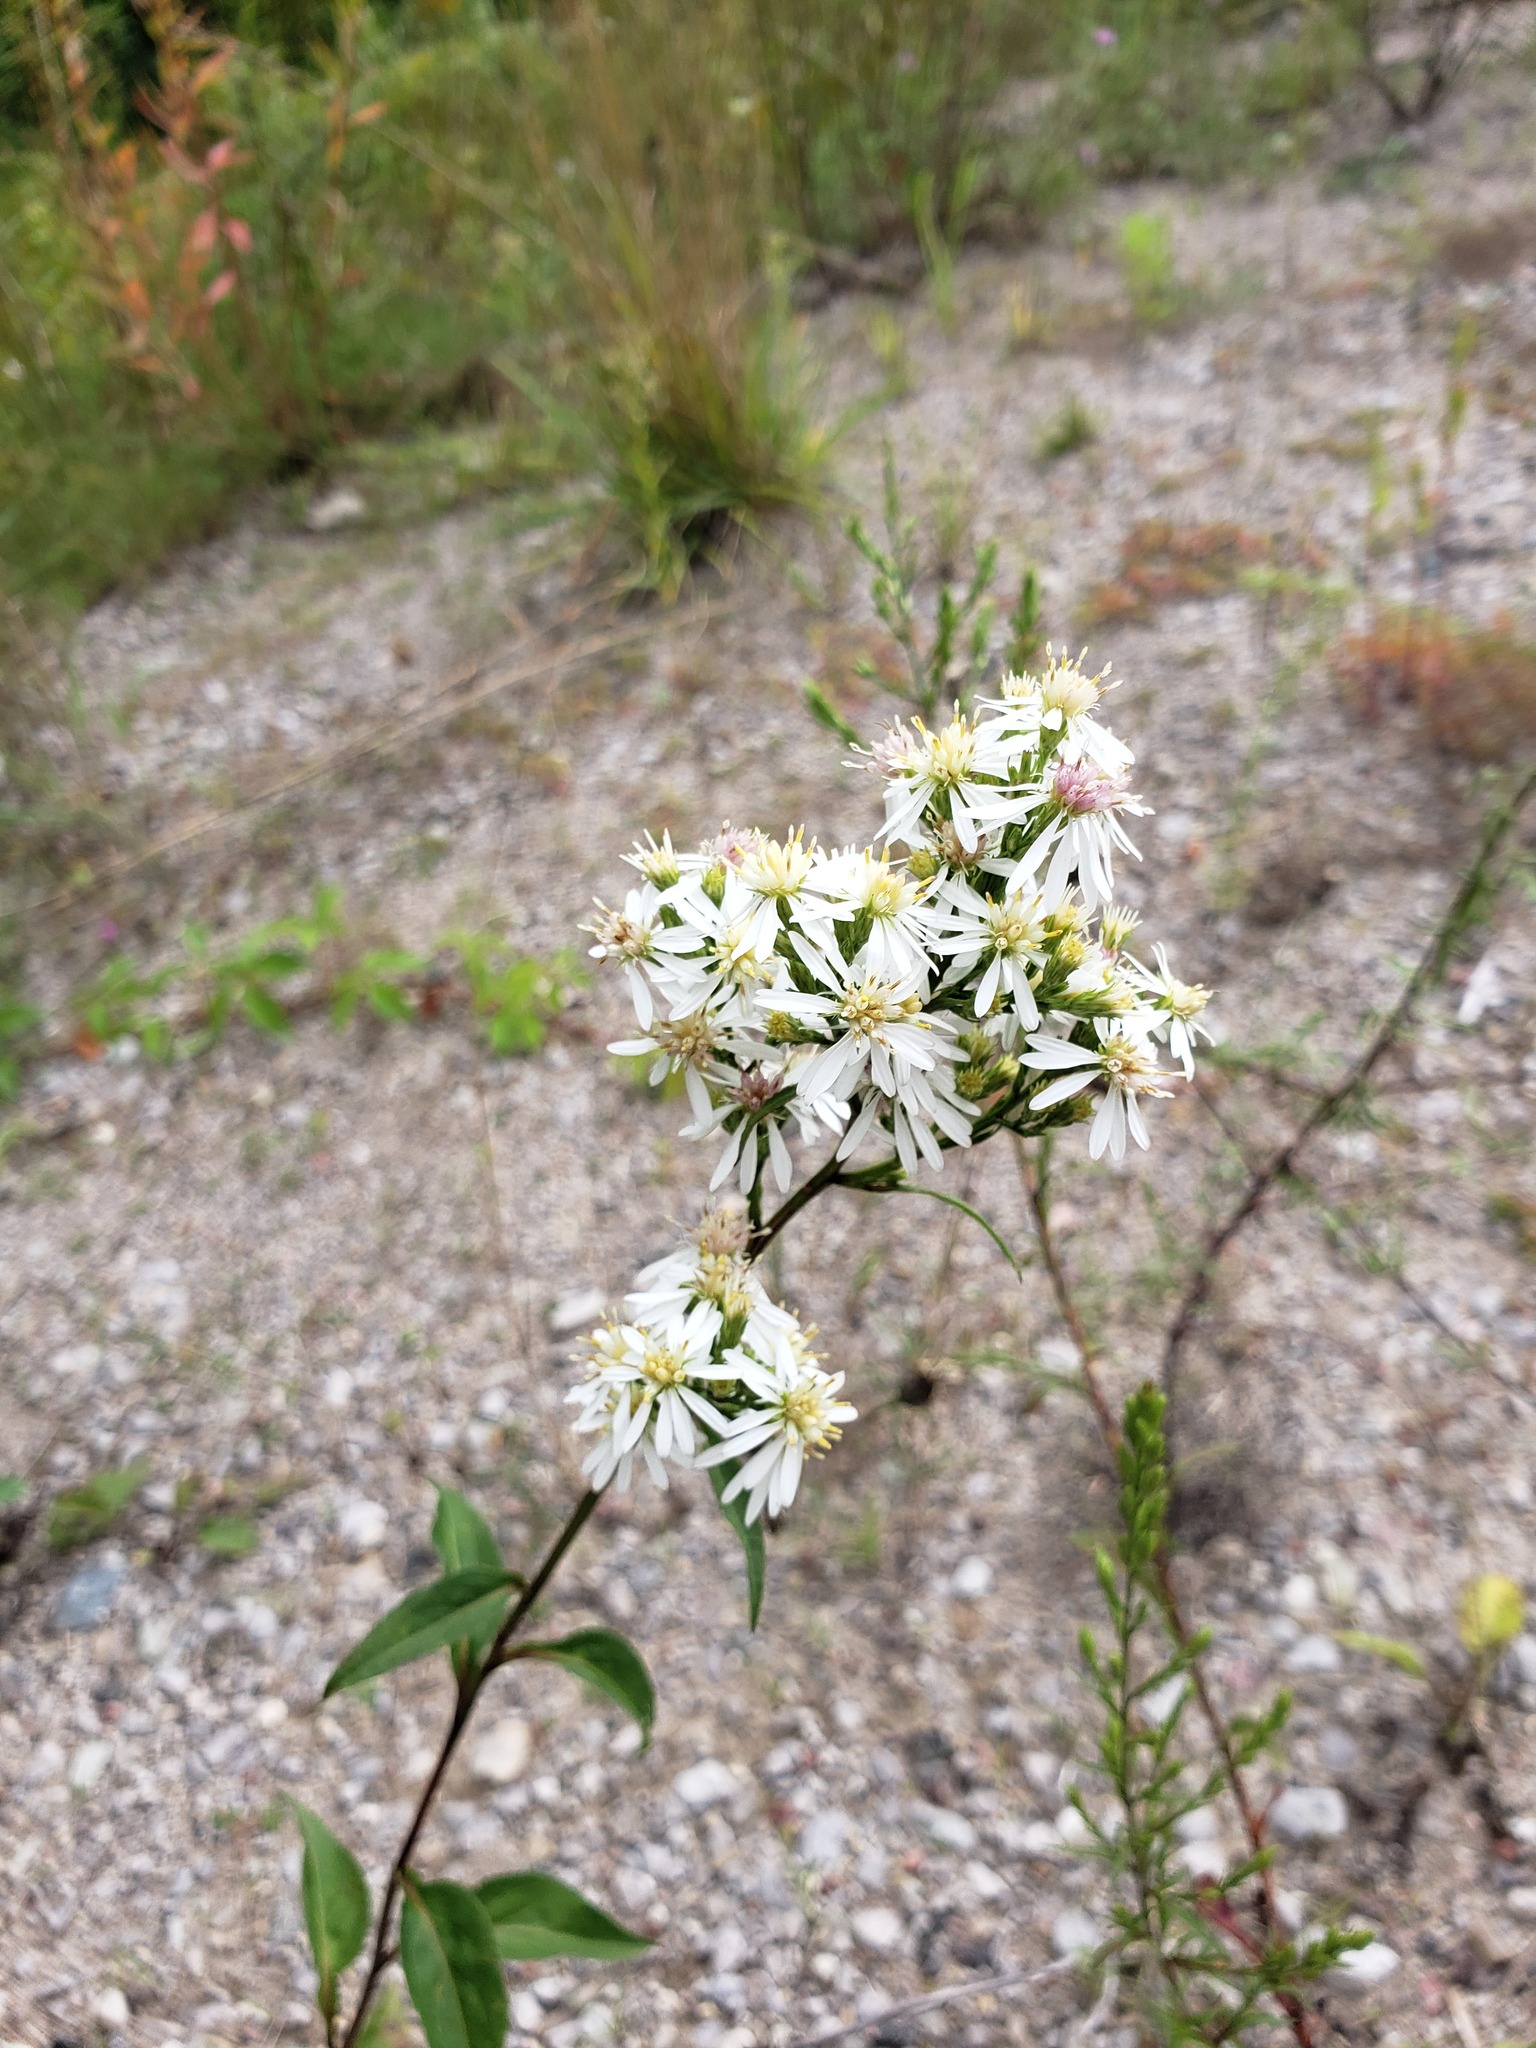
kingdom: Plantae
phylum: Tracheophyta
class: Magnoliopsida
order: Asterales
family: Asteraceae
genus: Symphyotrichum
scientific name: Symphyotrichum urophyllum
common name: Arrow-leaved aster
